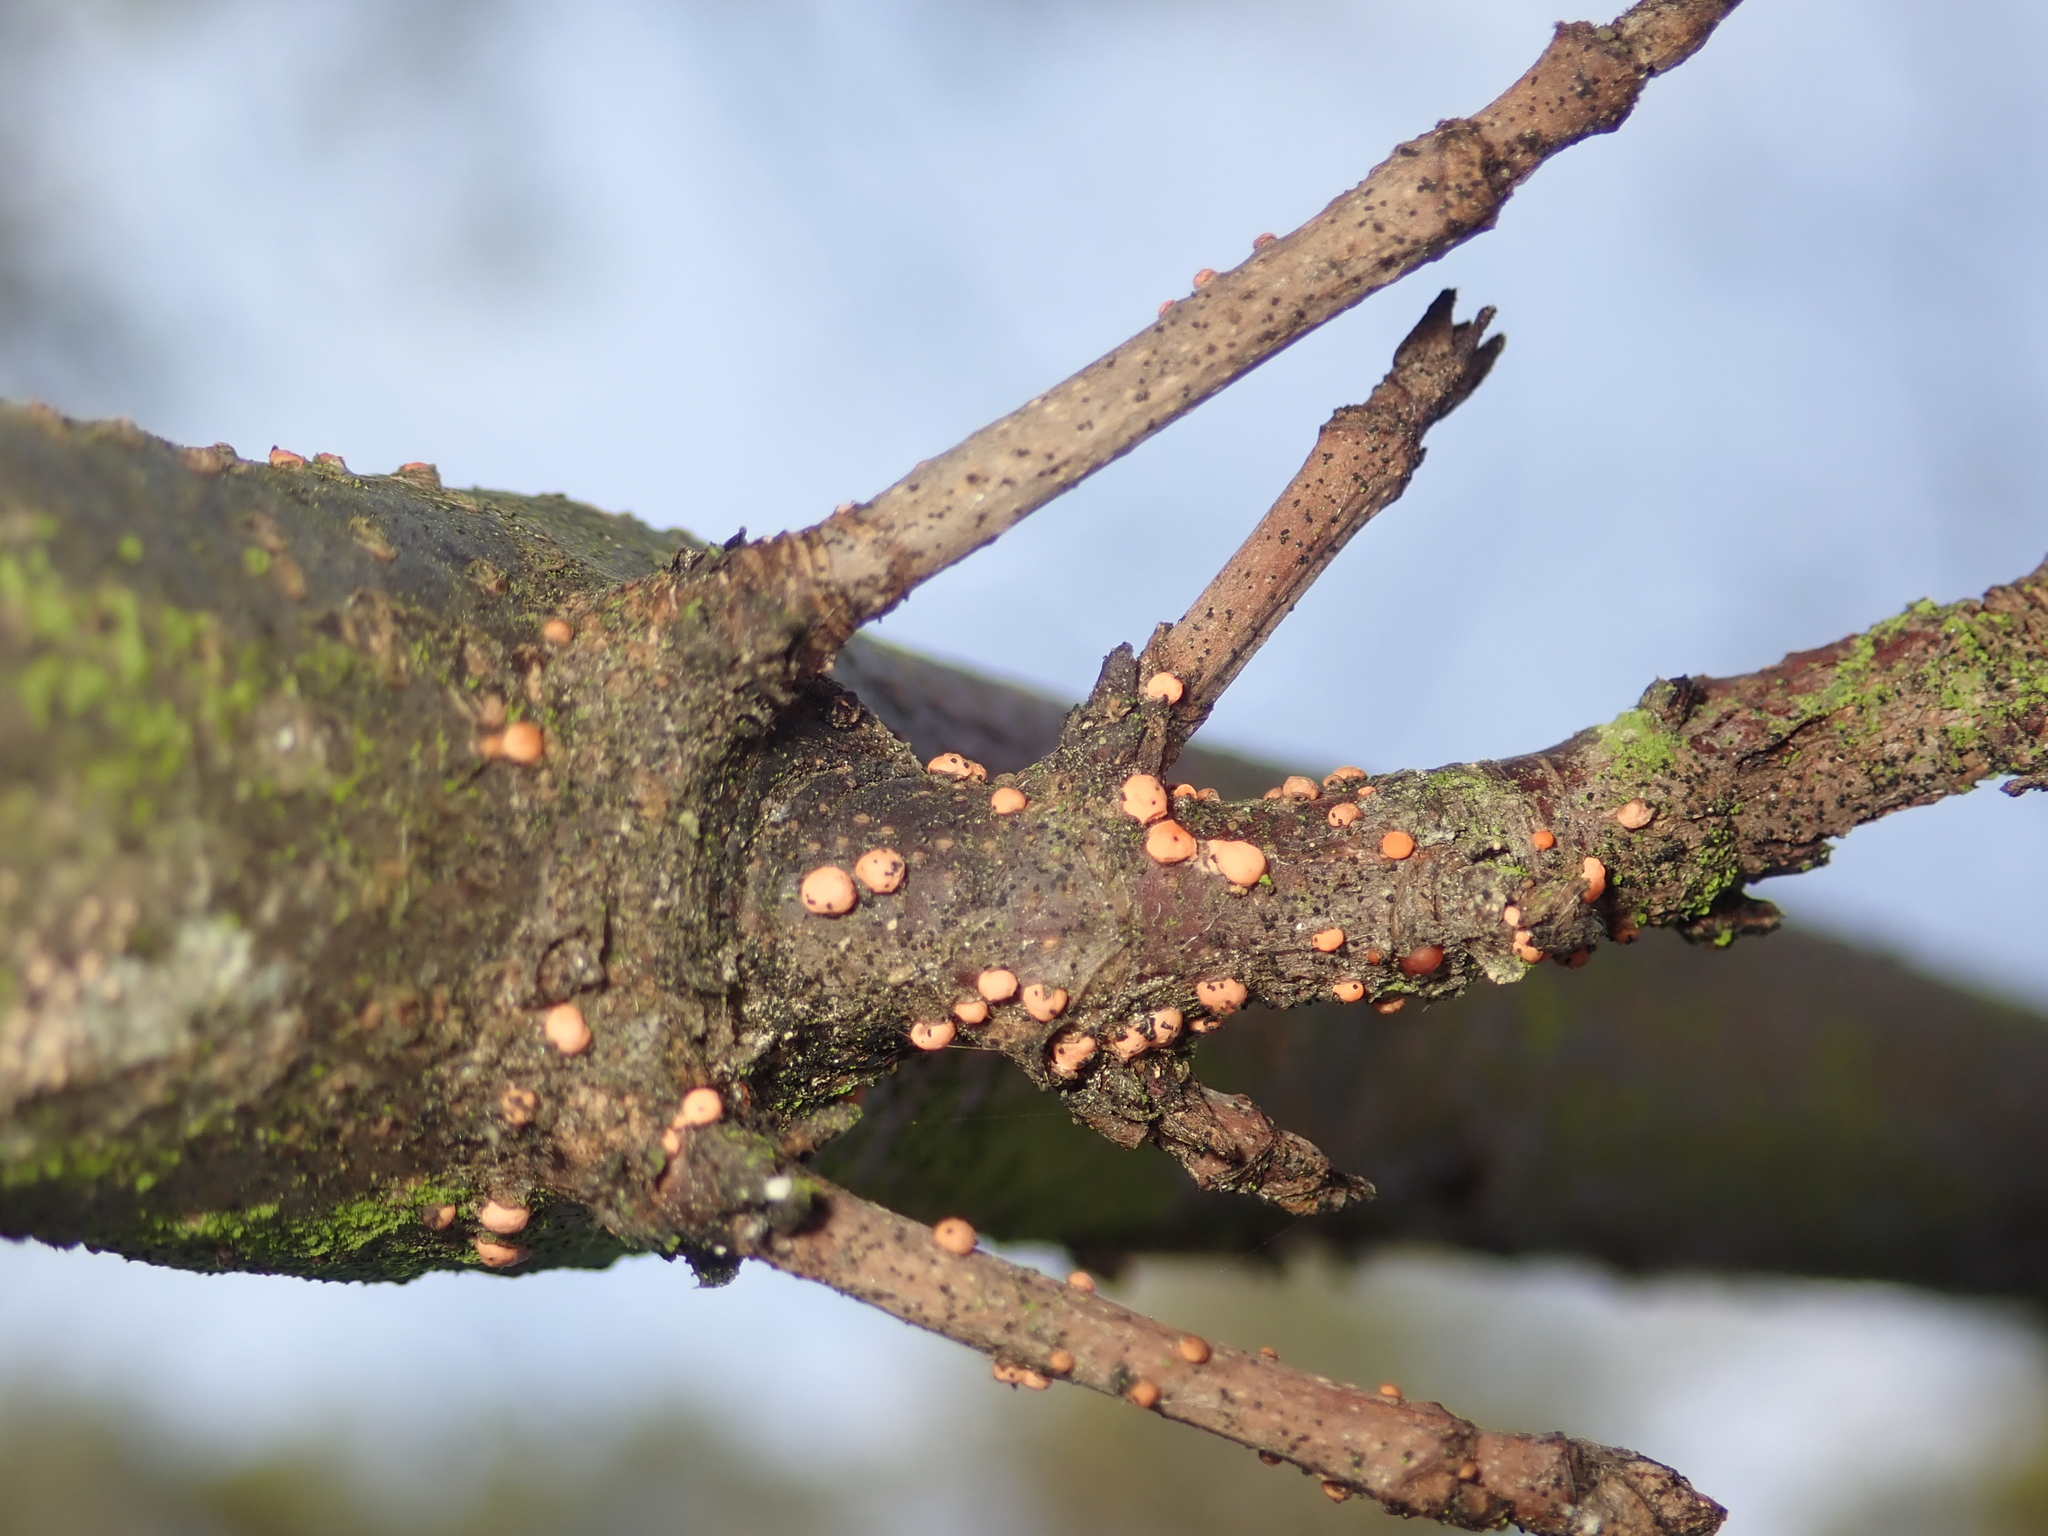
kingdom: Fungi
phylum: Ascomycota
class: Sordariomycetes
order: Hypocreales
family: Nectriaceae
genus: Nectria
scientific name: Nectria cinnabarina
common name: Coral spot
